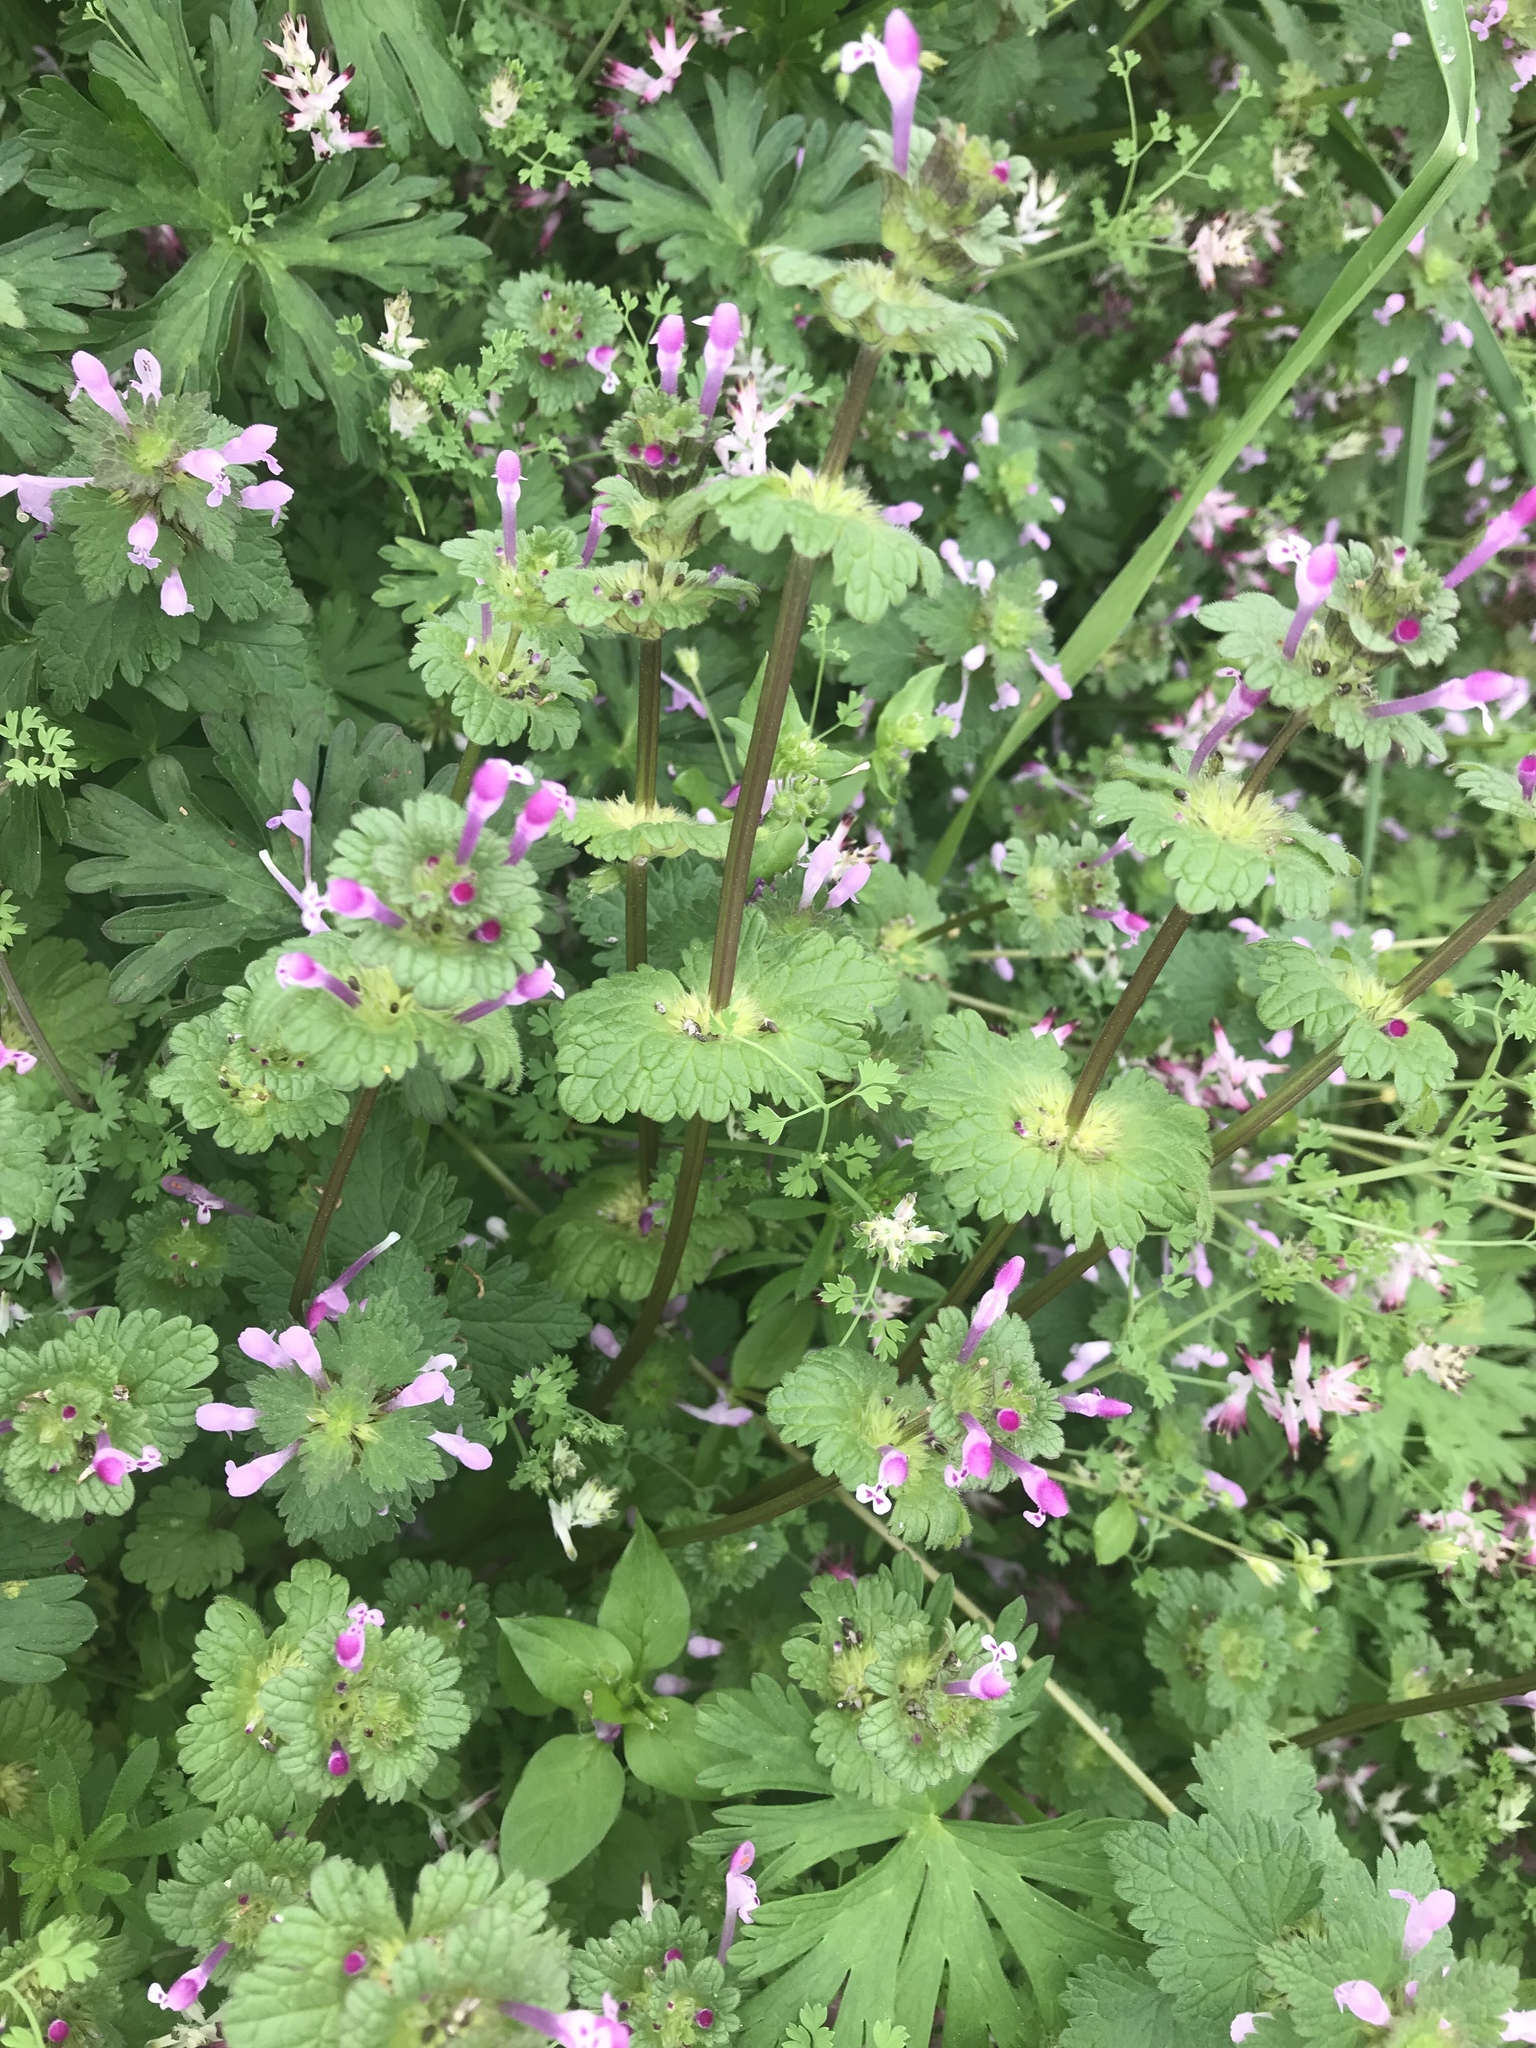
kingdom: Plantae
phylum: Tracheophyta
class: Magnoliopsida
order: Lamiales
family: Lamiaceae
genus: Lamium
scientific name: Lamium amplexicaule
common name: Henbit dead-nettle
